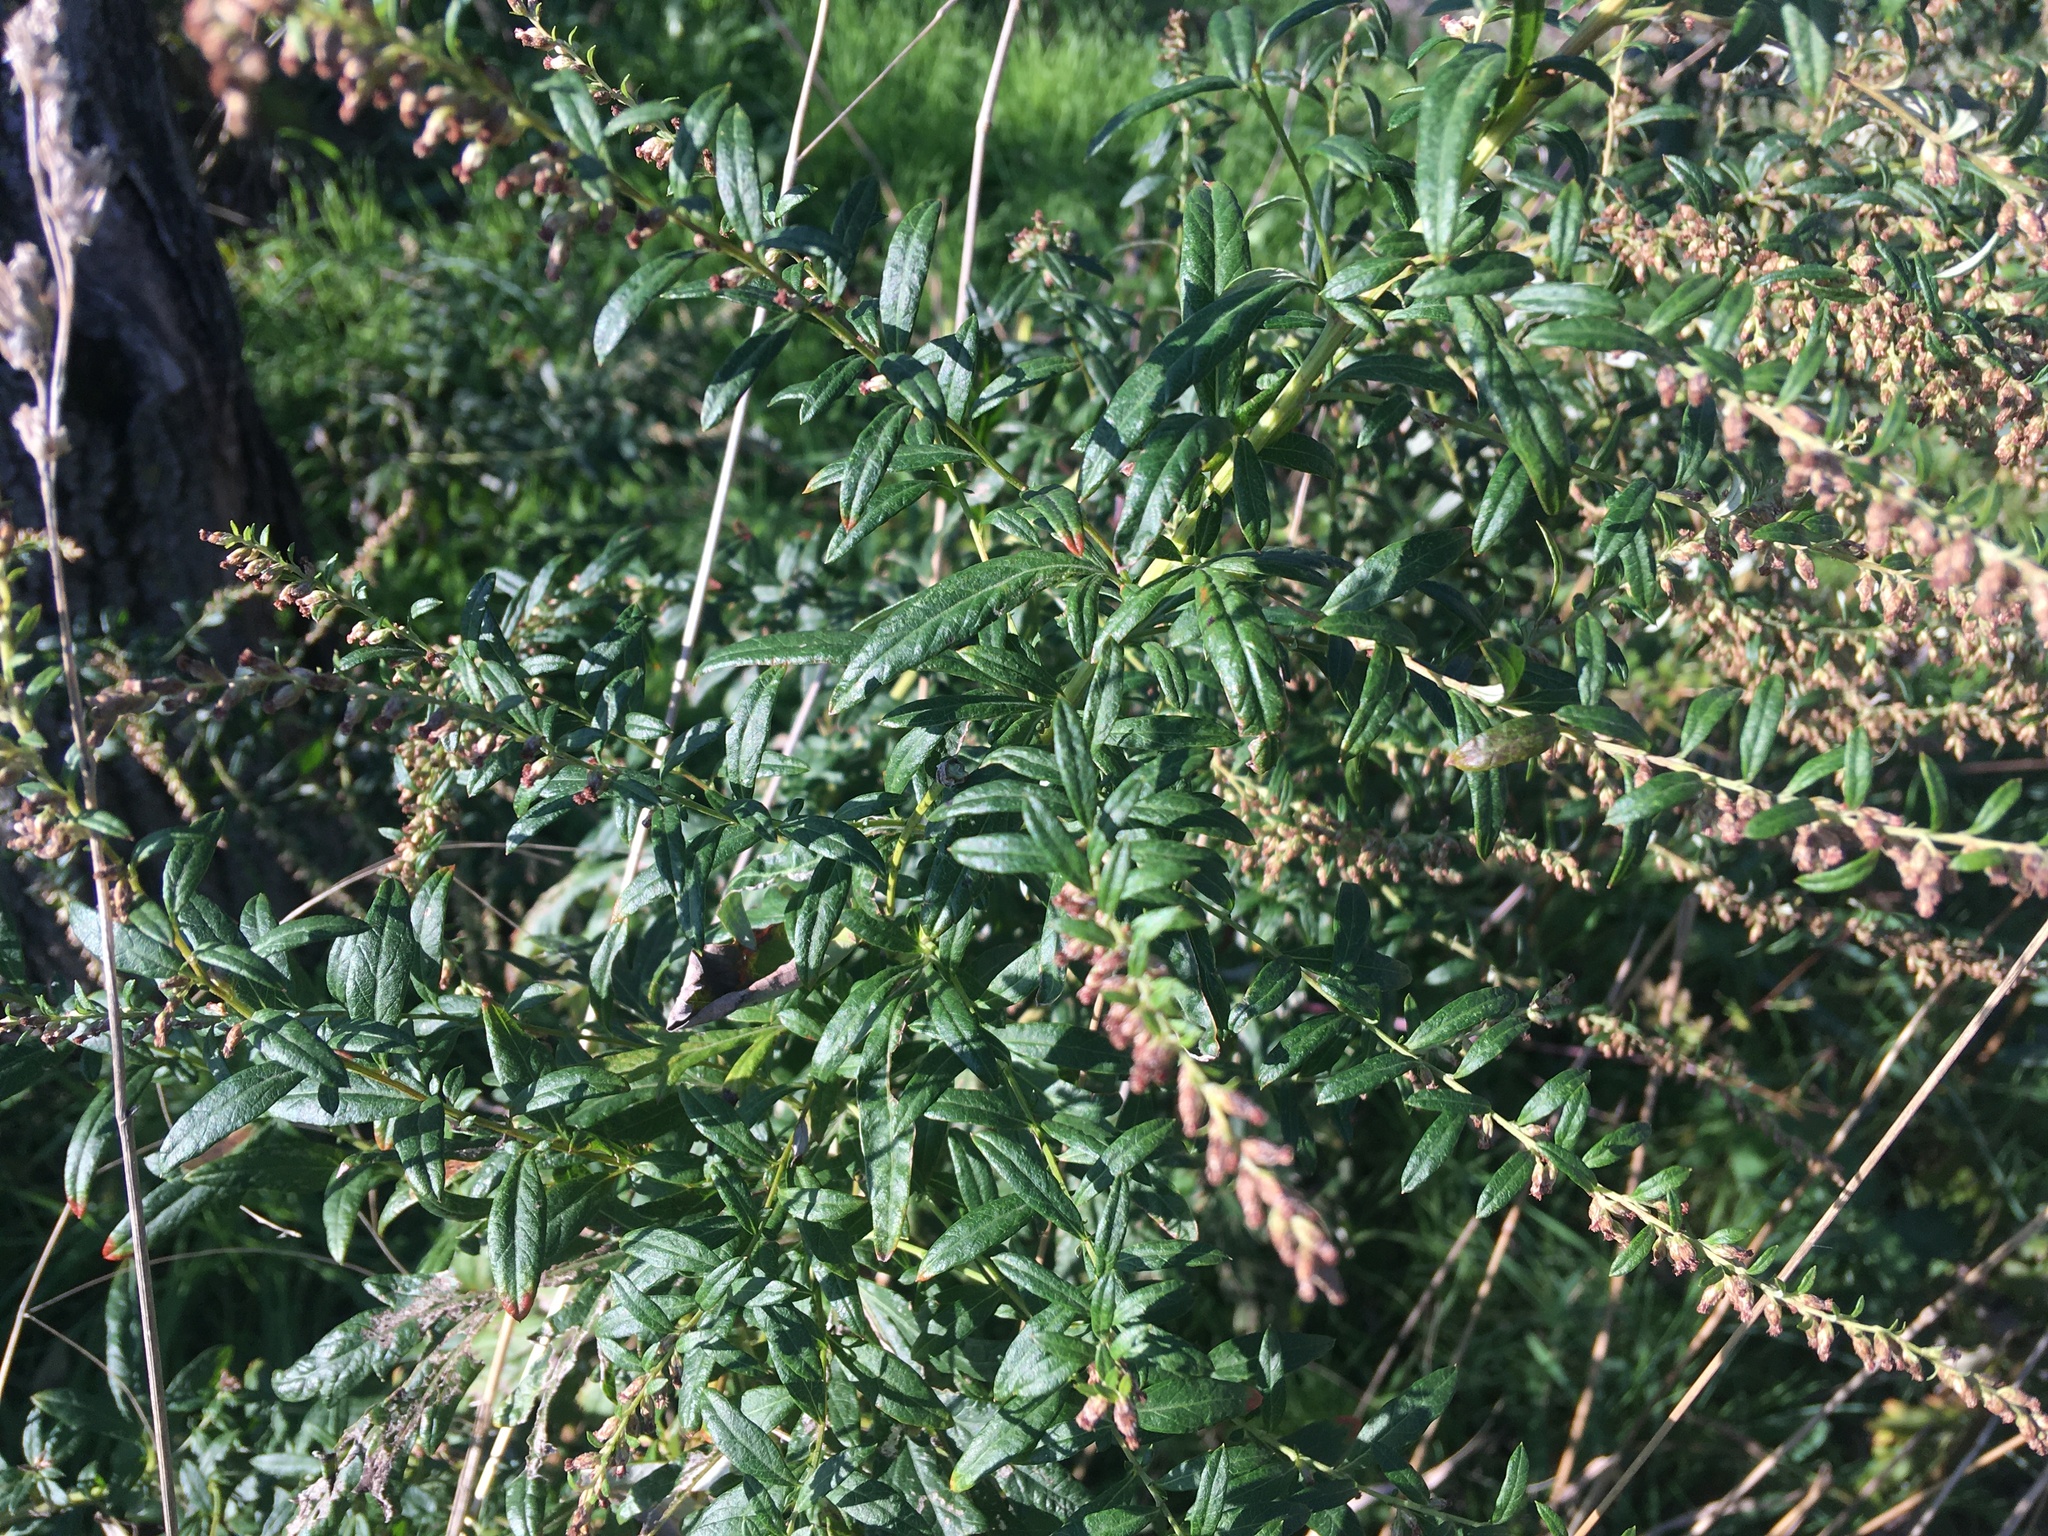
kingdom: Plantae
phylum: Tracheophyta
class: Magnoliopsida
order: Asterales
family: Asteraceae
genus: Artemisia
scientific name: Artemisia vulgaris
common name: Mugwort
